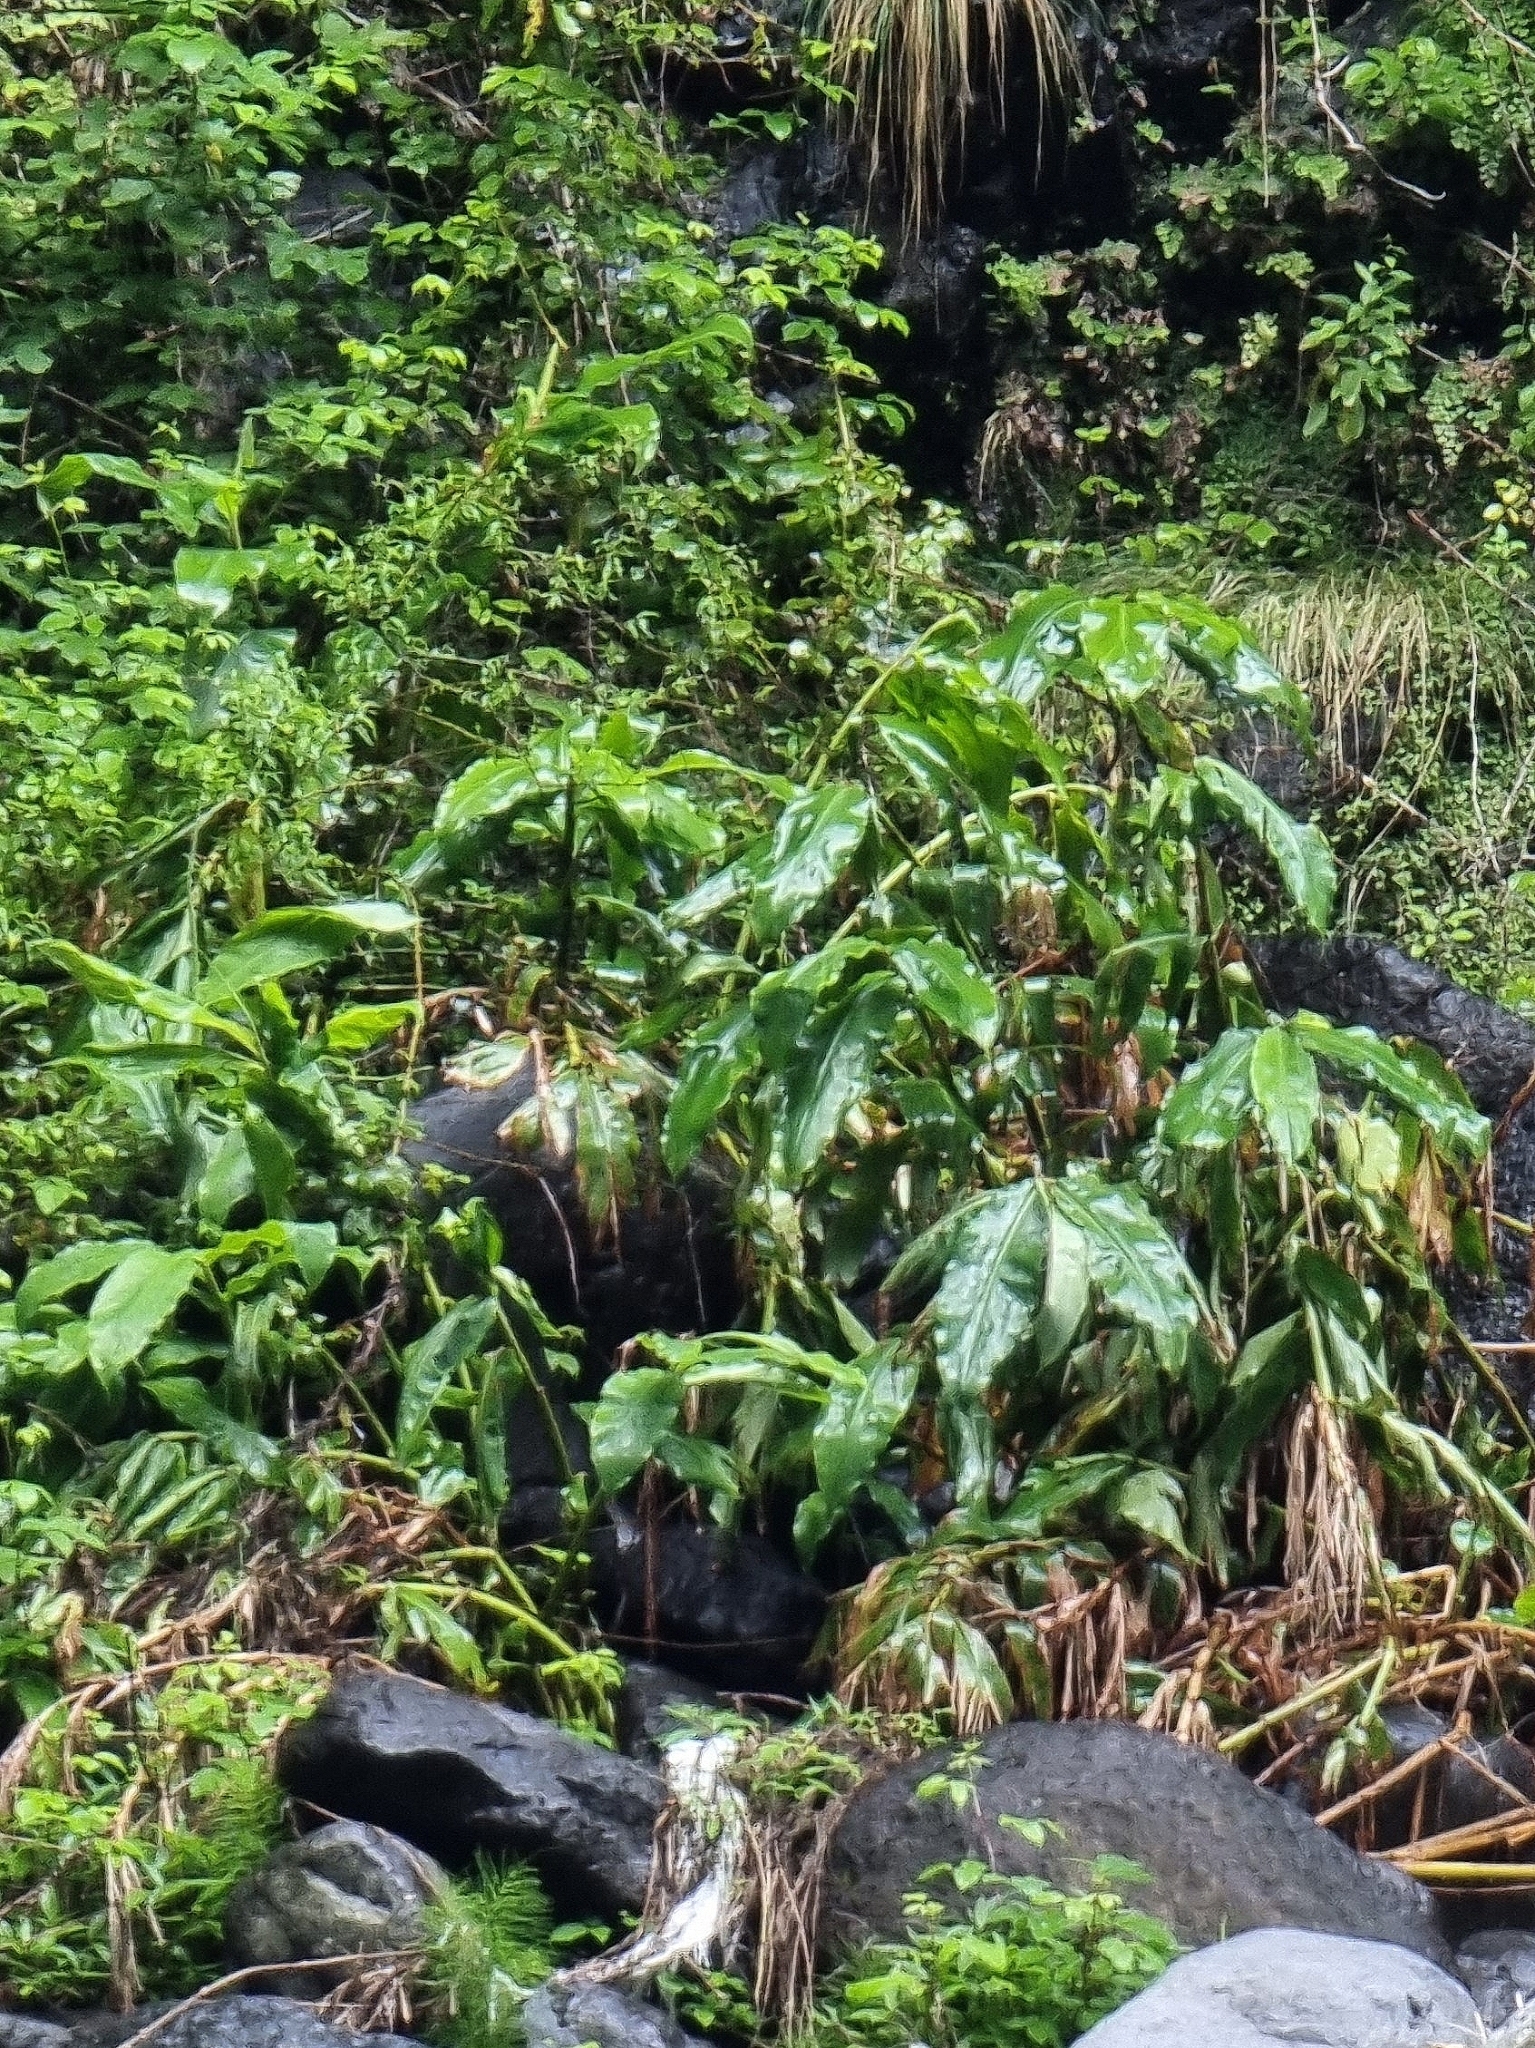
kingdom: Plantae
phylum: Tracheophyta
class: Liliopsida
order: Zingiberales
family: Zingiberaceae
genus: Hedychium
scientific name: Hedychium gardnerianum
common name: Himalayan ginger
